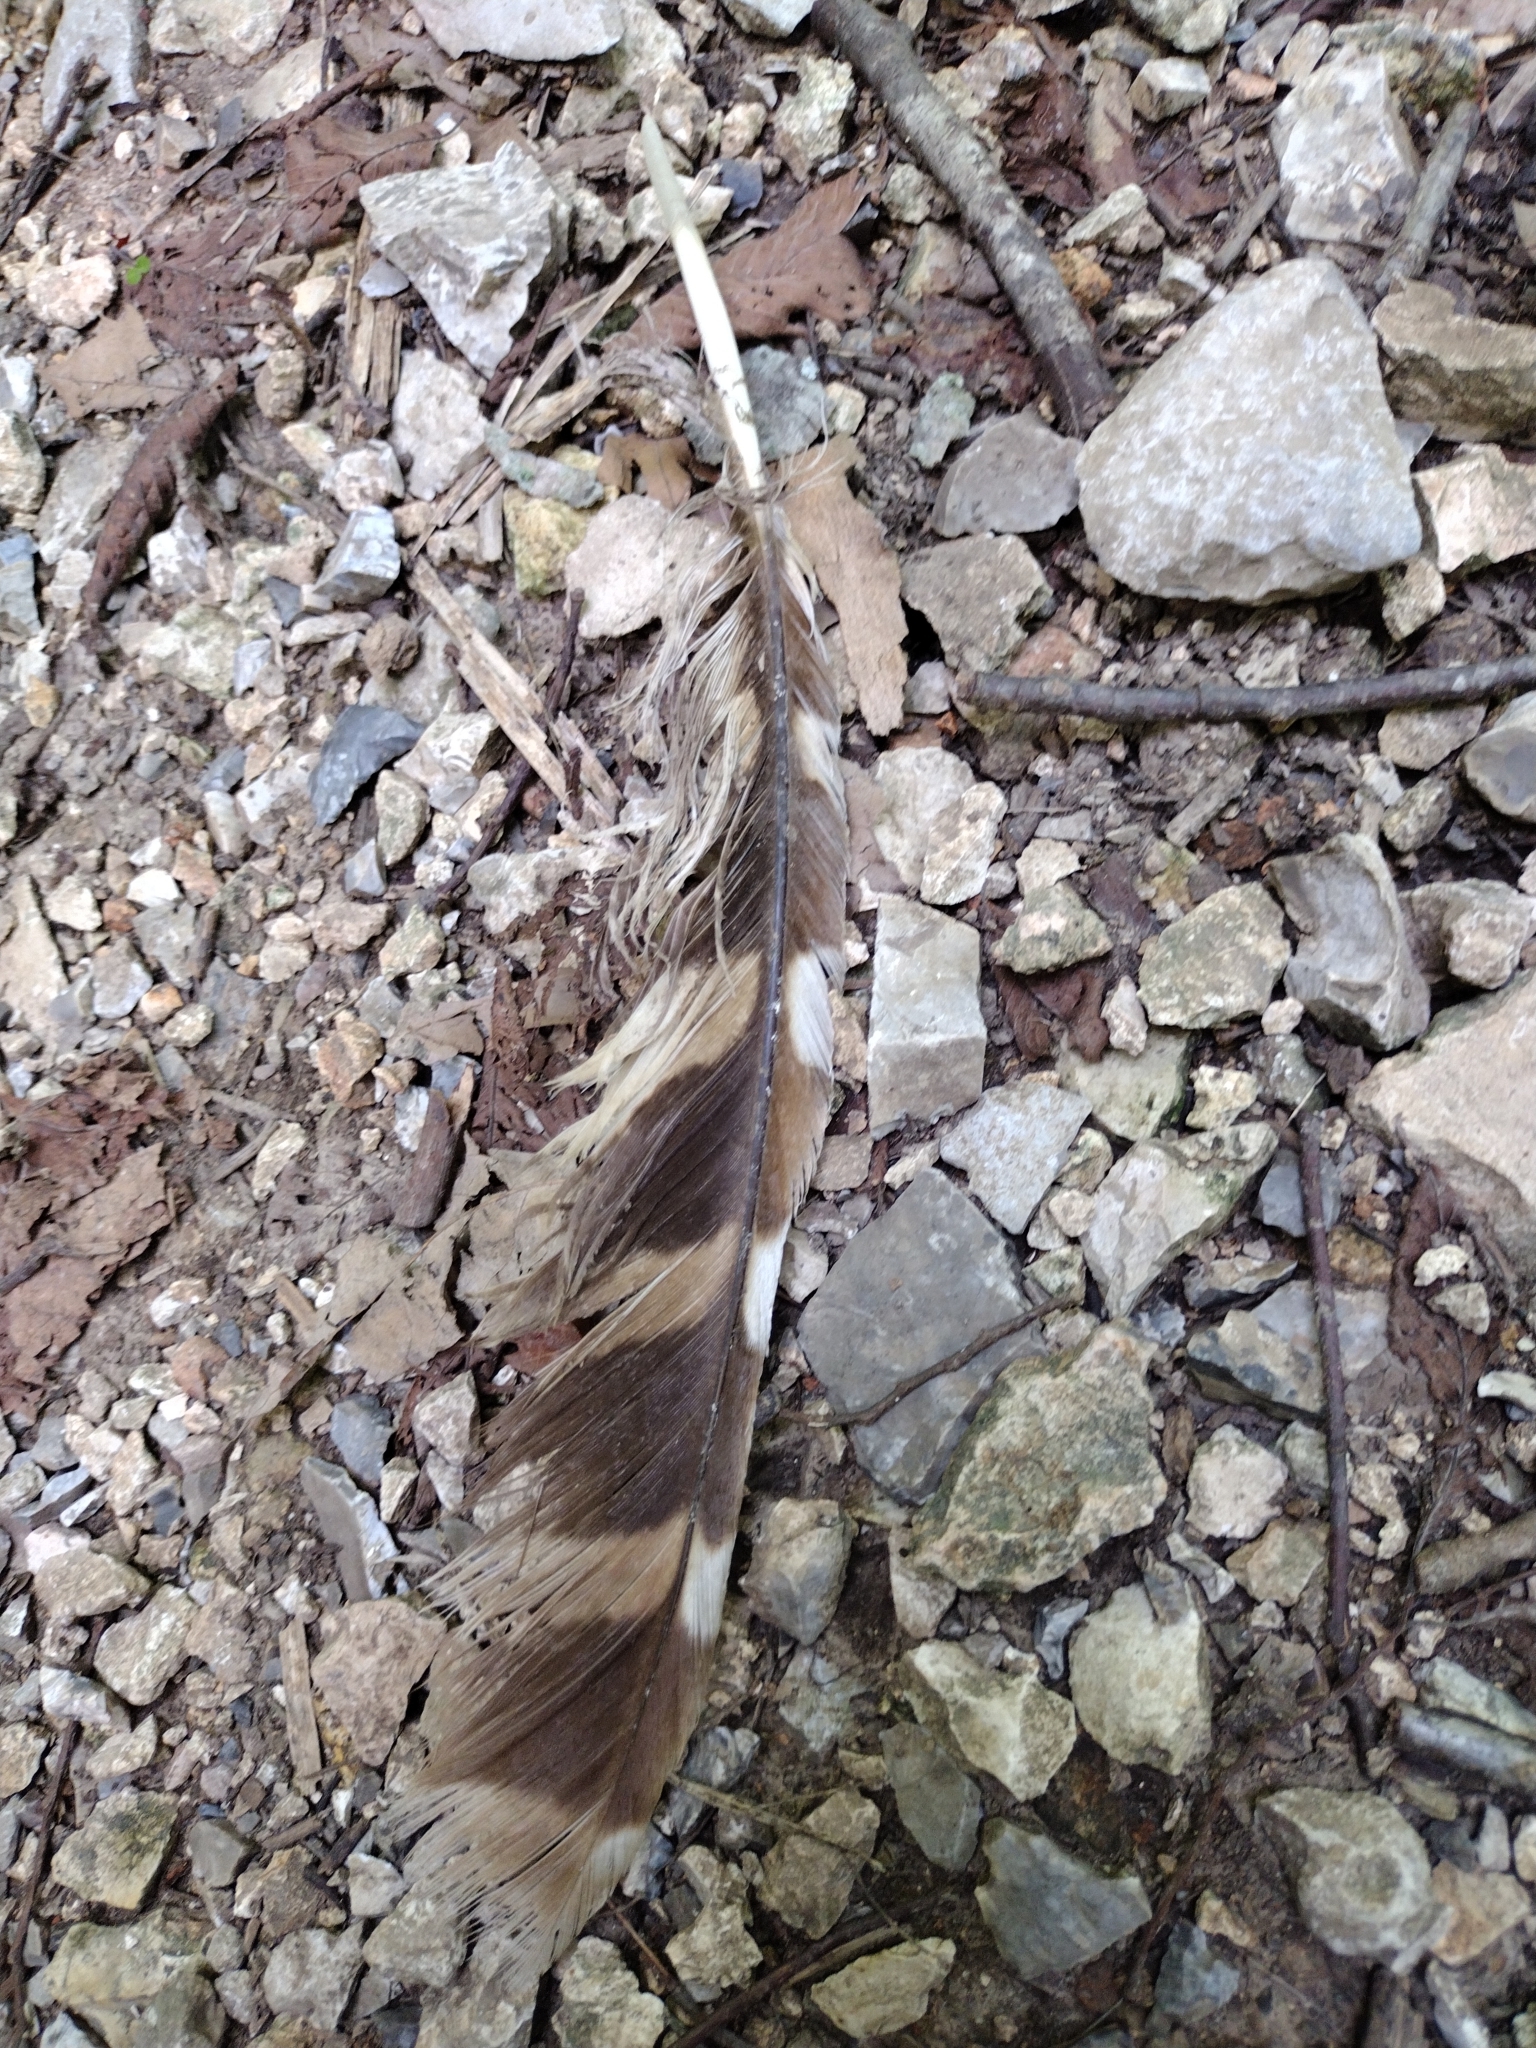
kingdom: Animalia
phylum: Chordata
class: Aves
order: Strigiformes
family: Strigidae
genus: Strix
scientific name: Strix varia
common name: Barred owl
